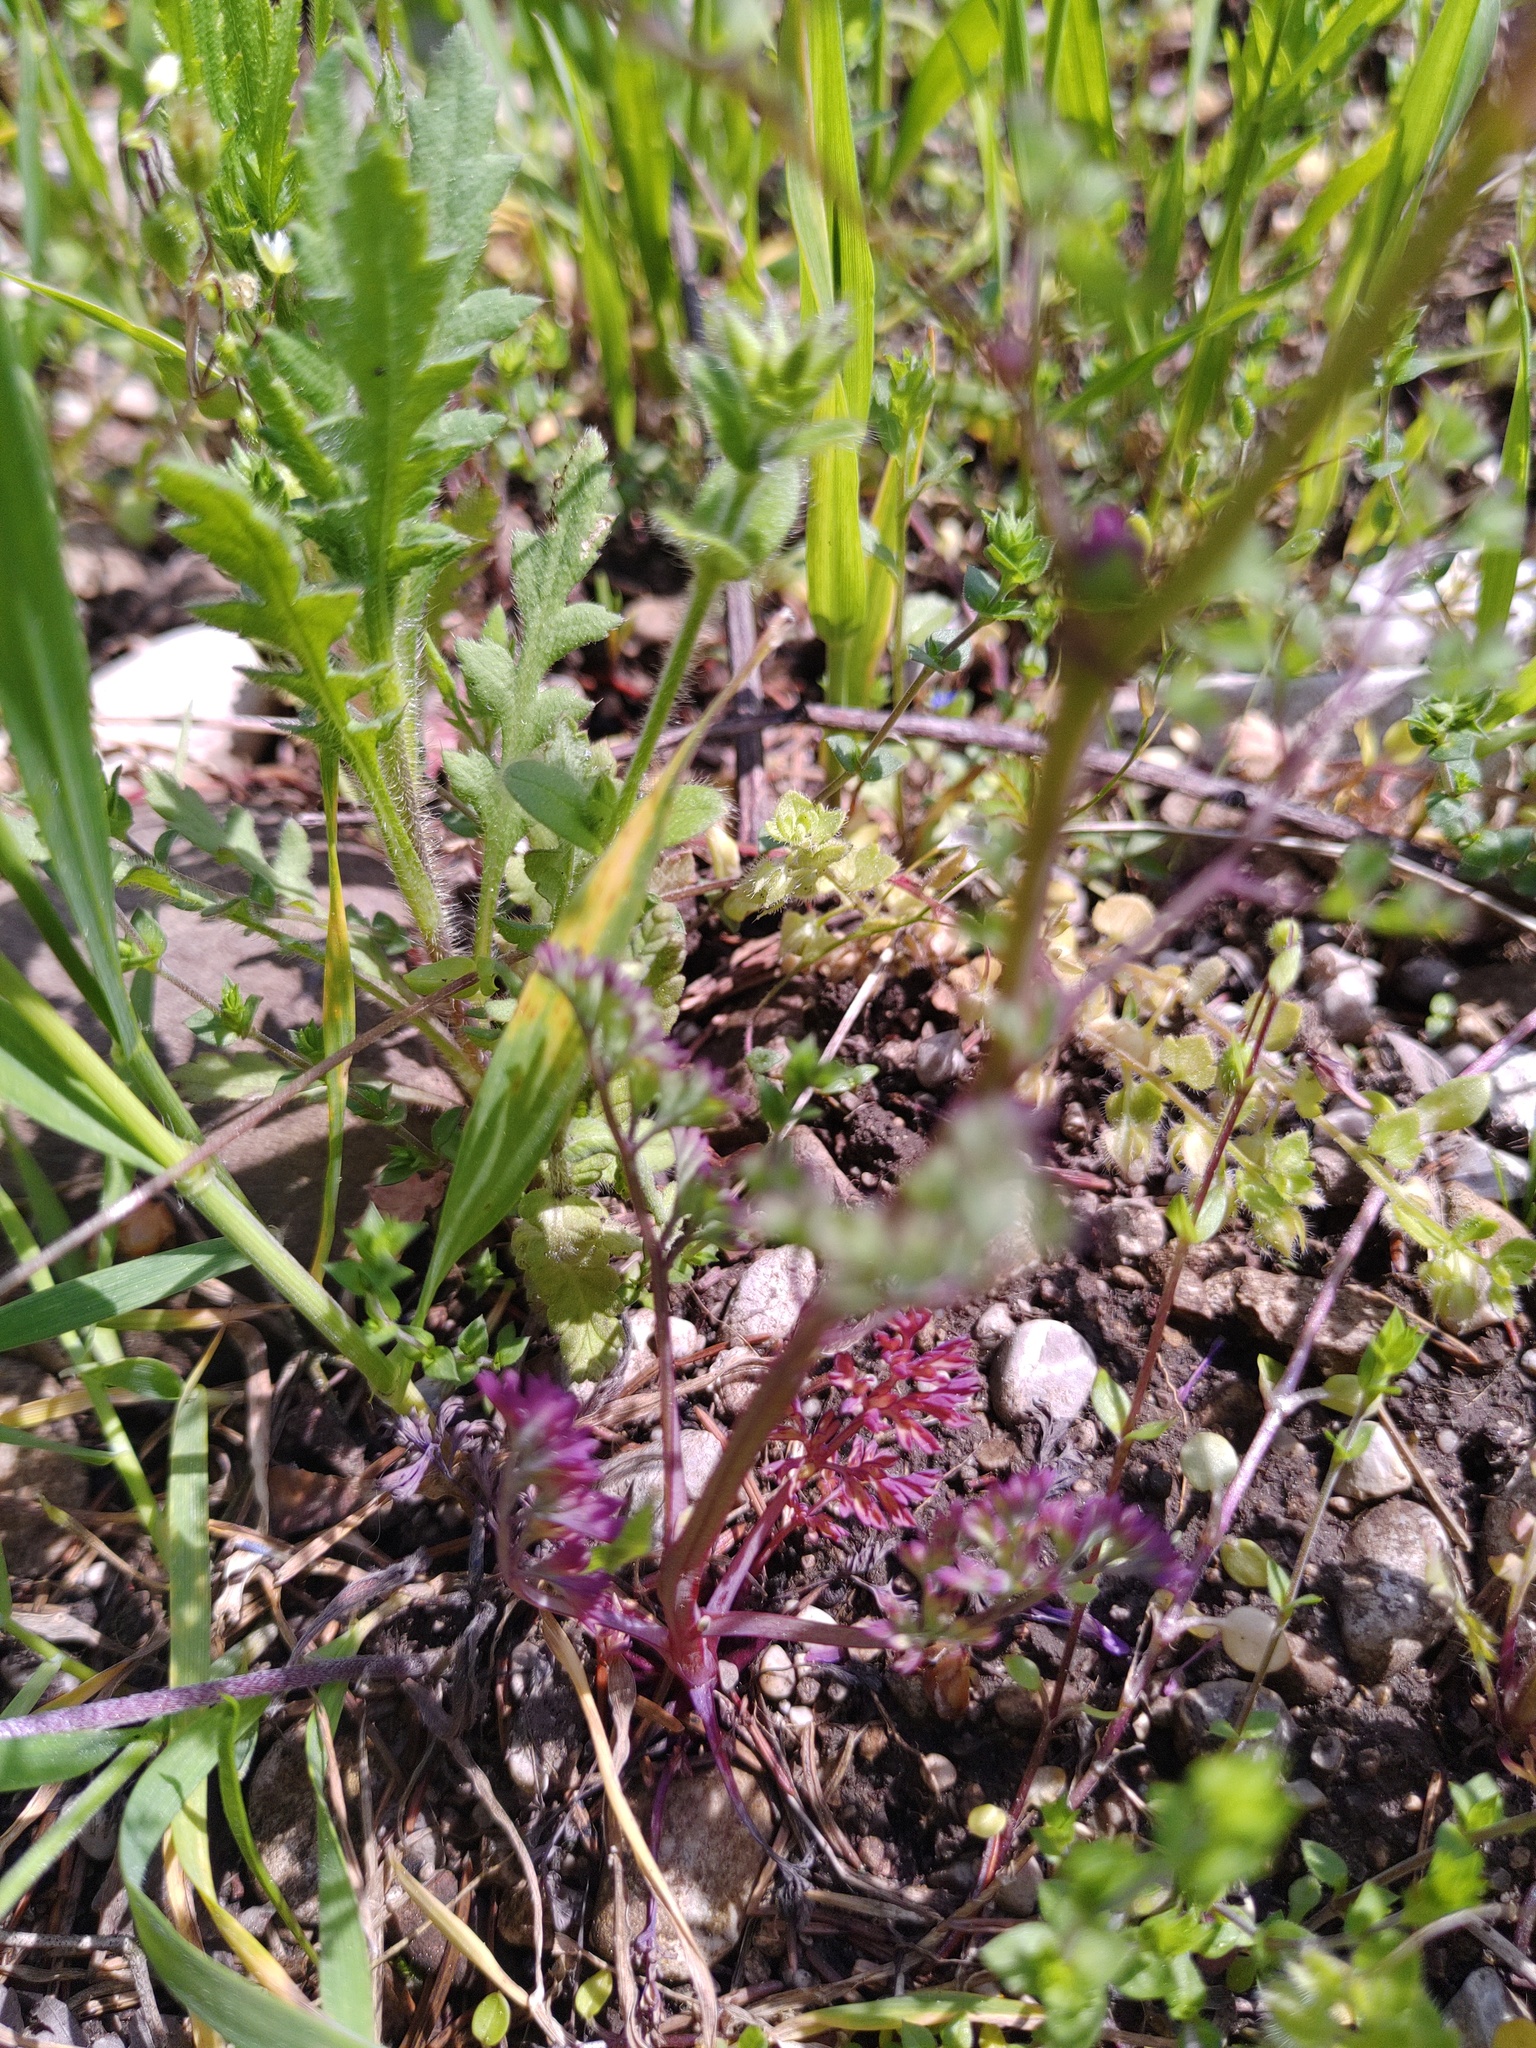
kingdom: Plantae
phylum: Tracheophyta
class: Magnoliopsida
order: Ranunculales
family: Papaveraceae
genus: Fumaria
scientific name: Fumaria officinalis
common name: Common fumitory
